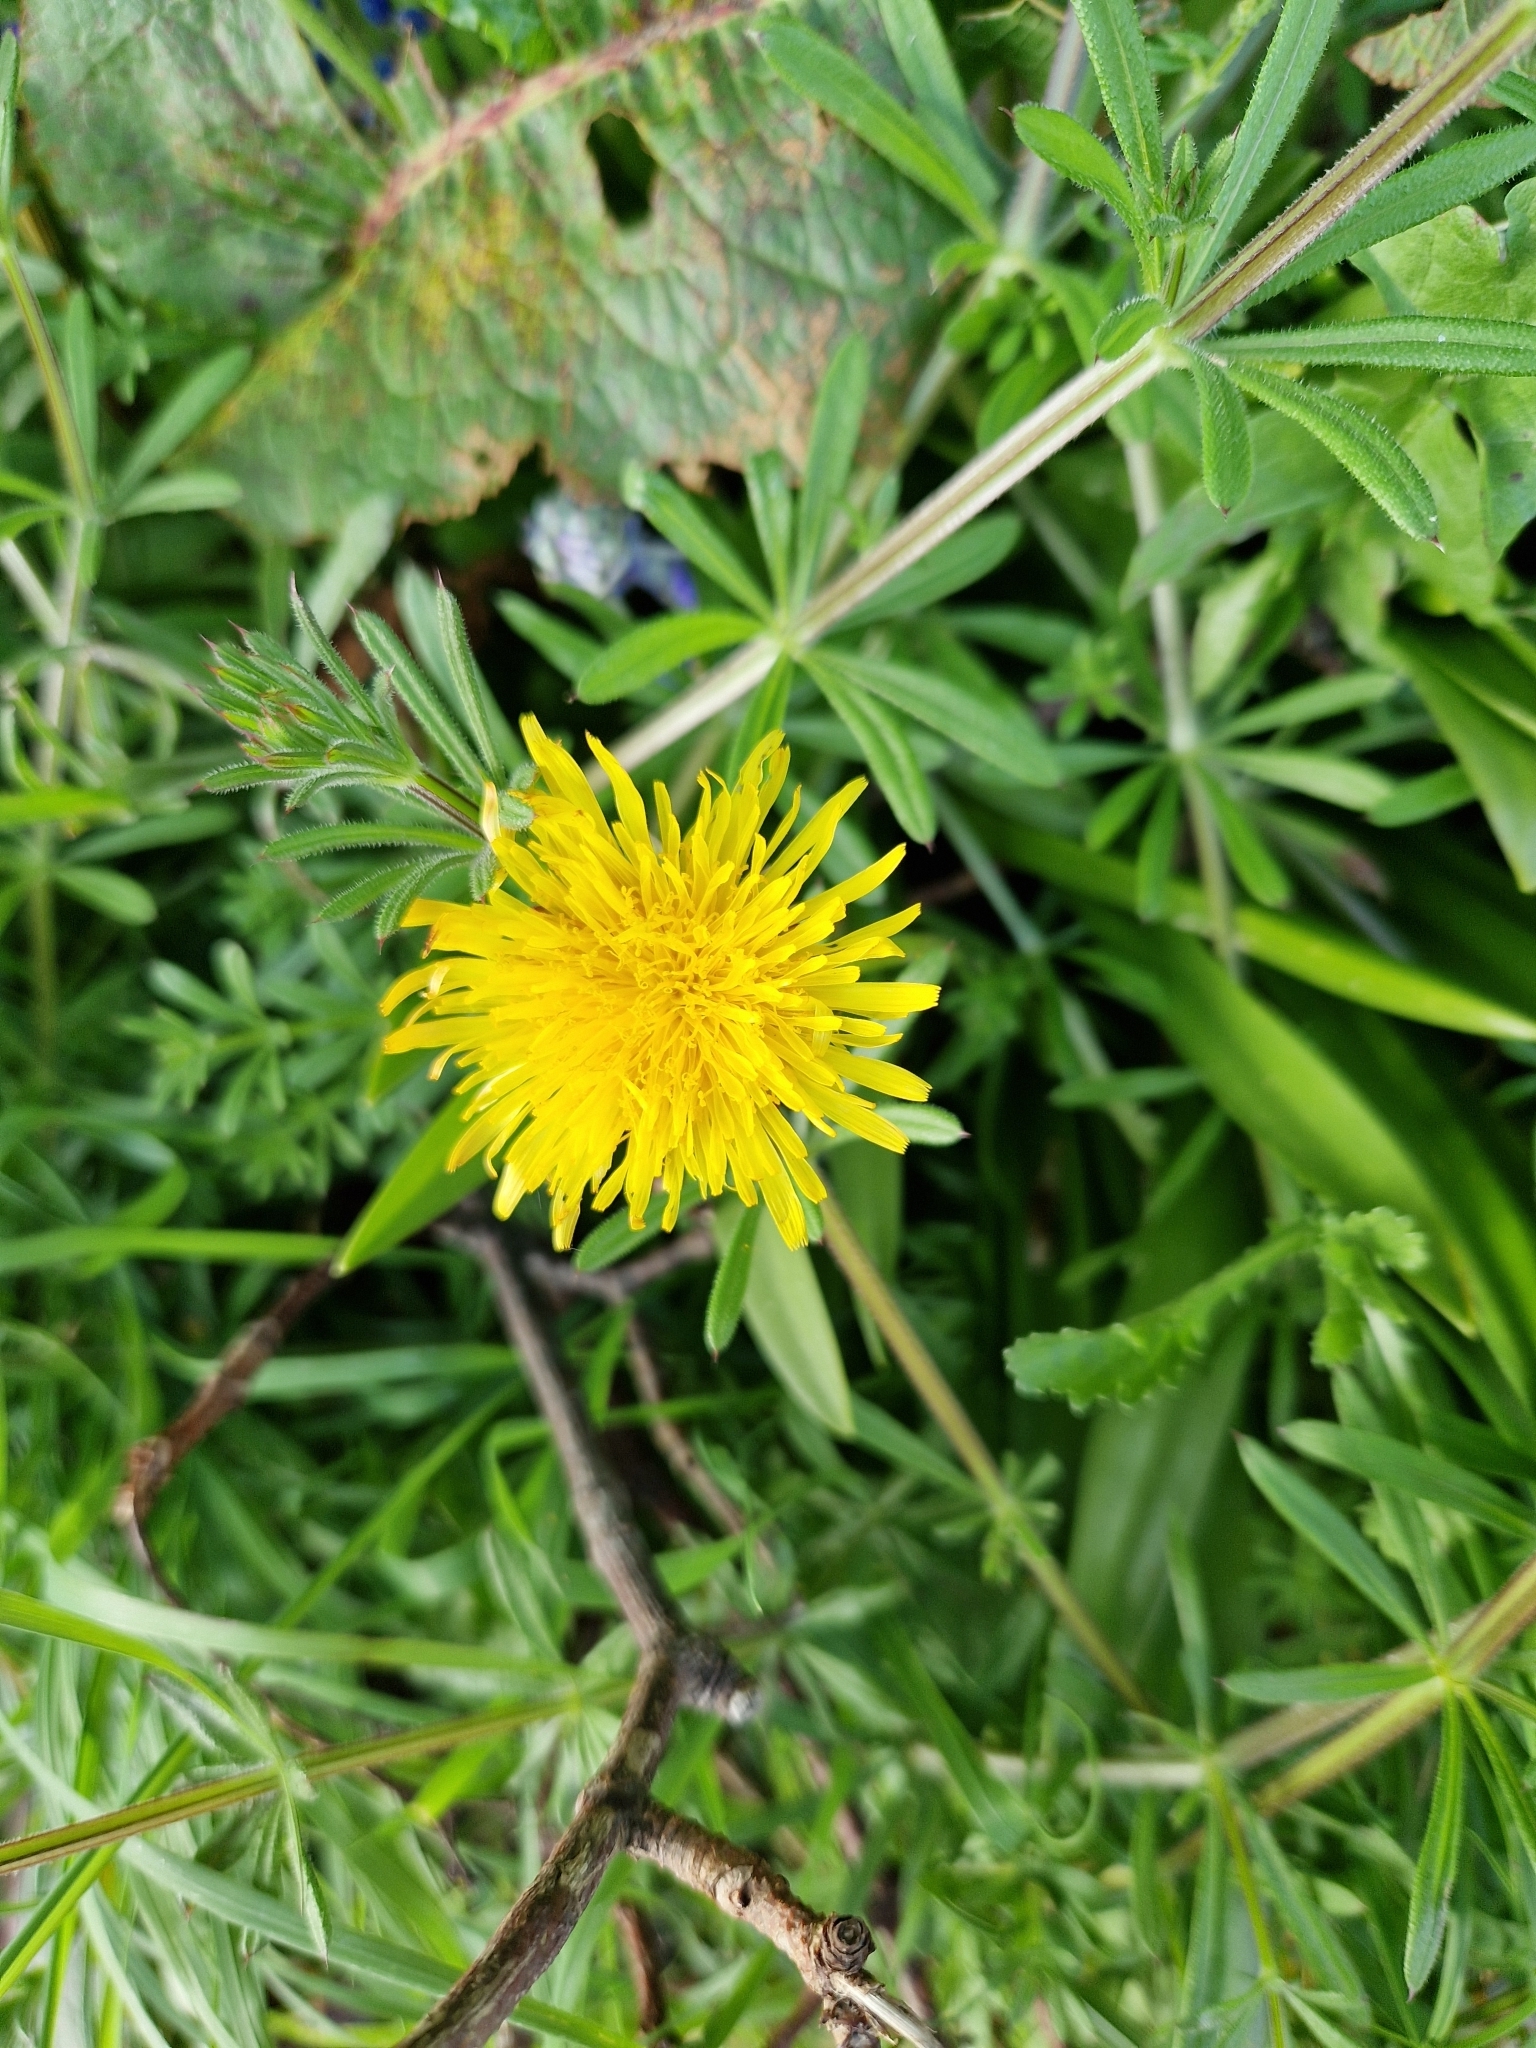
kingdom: Plantae
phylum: Tracheophyta
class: Magnoliopsida
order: Asterales
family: Asteraceae
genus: Taraxacum
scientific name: Taraxacum officinale
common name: Common dandelion
